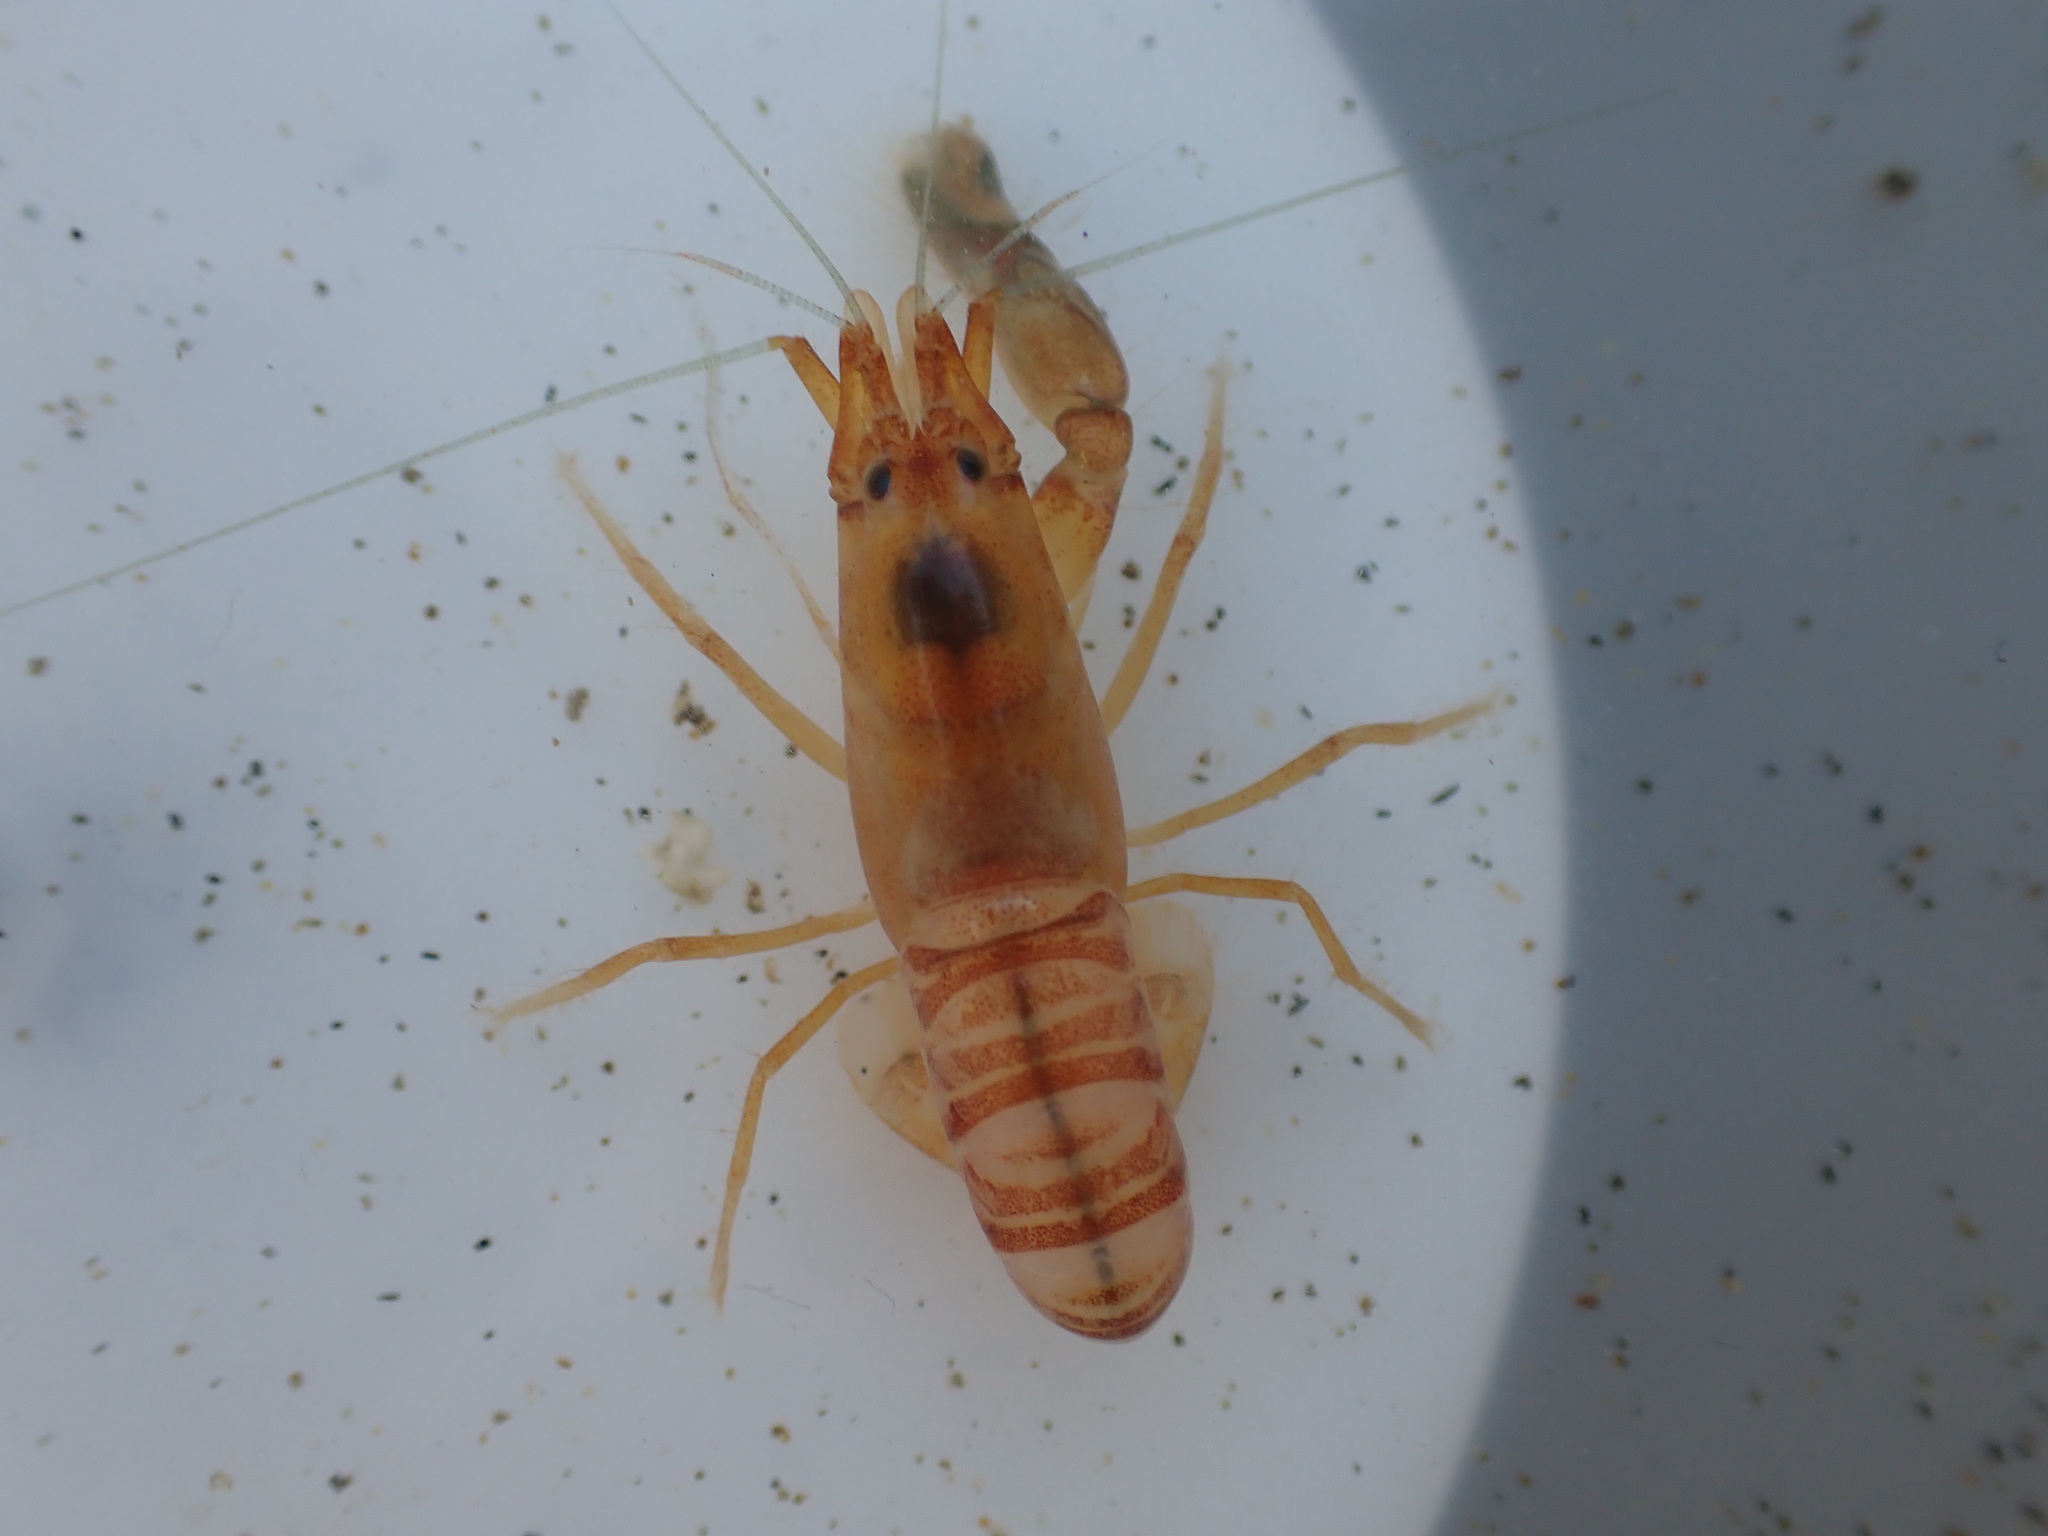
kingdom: Animalia
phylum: Arthropoda
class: Malacostraca
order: Decapoda
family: Alpheidae
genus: Alpheus
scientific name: Alpheus richardsoni
